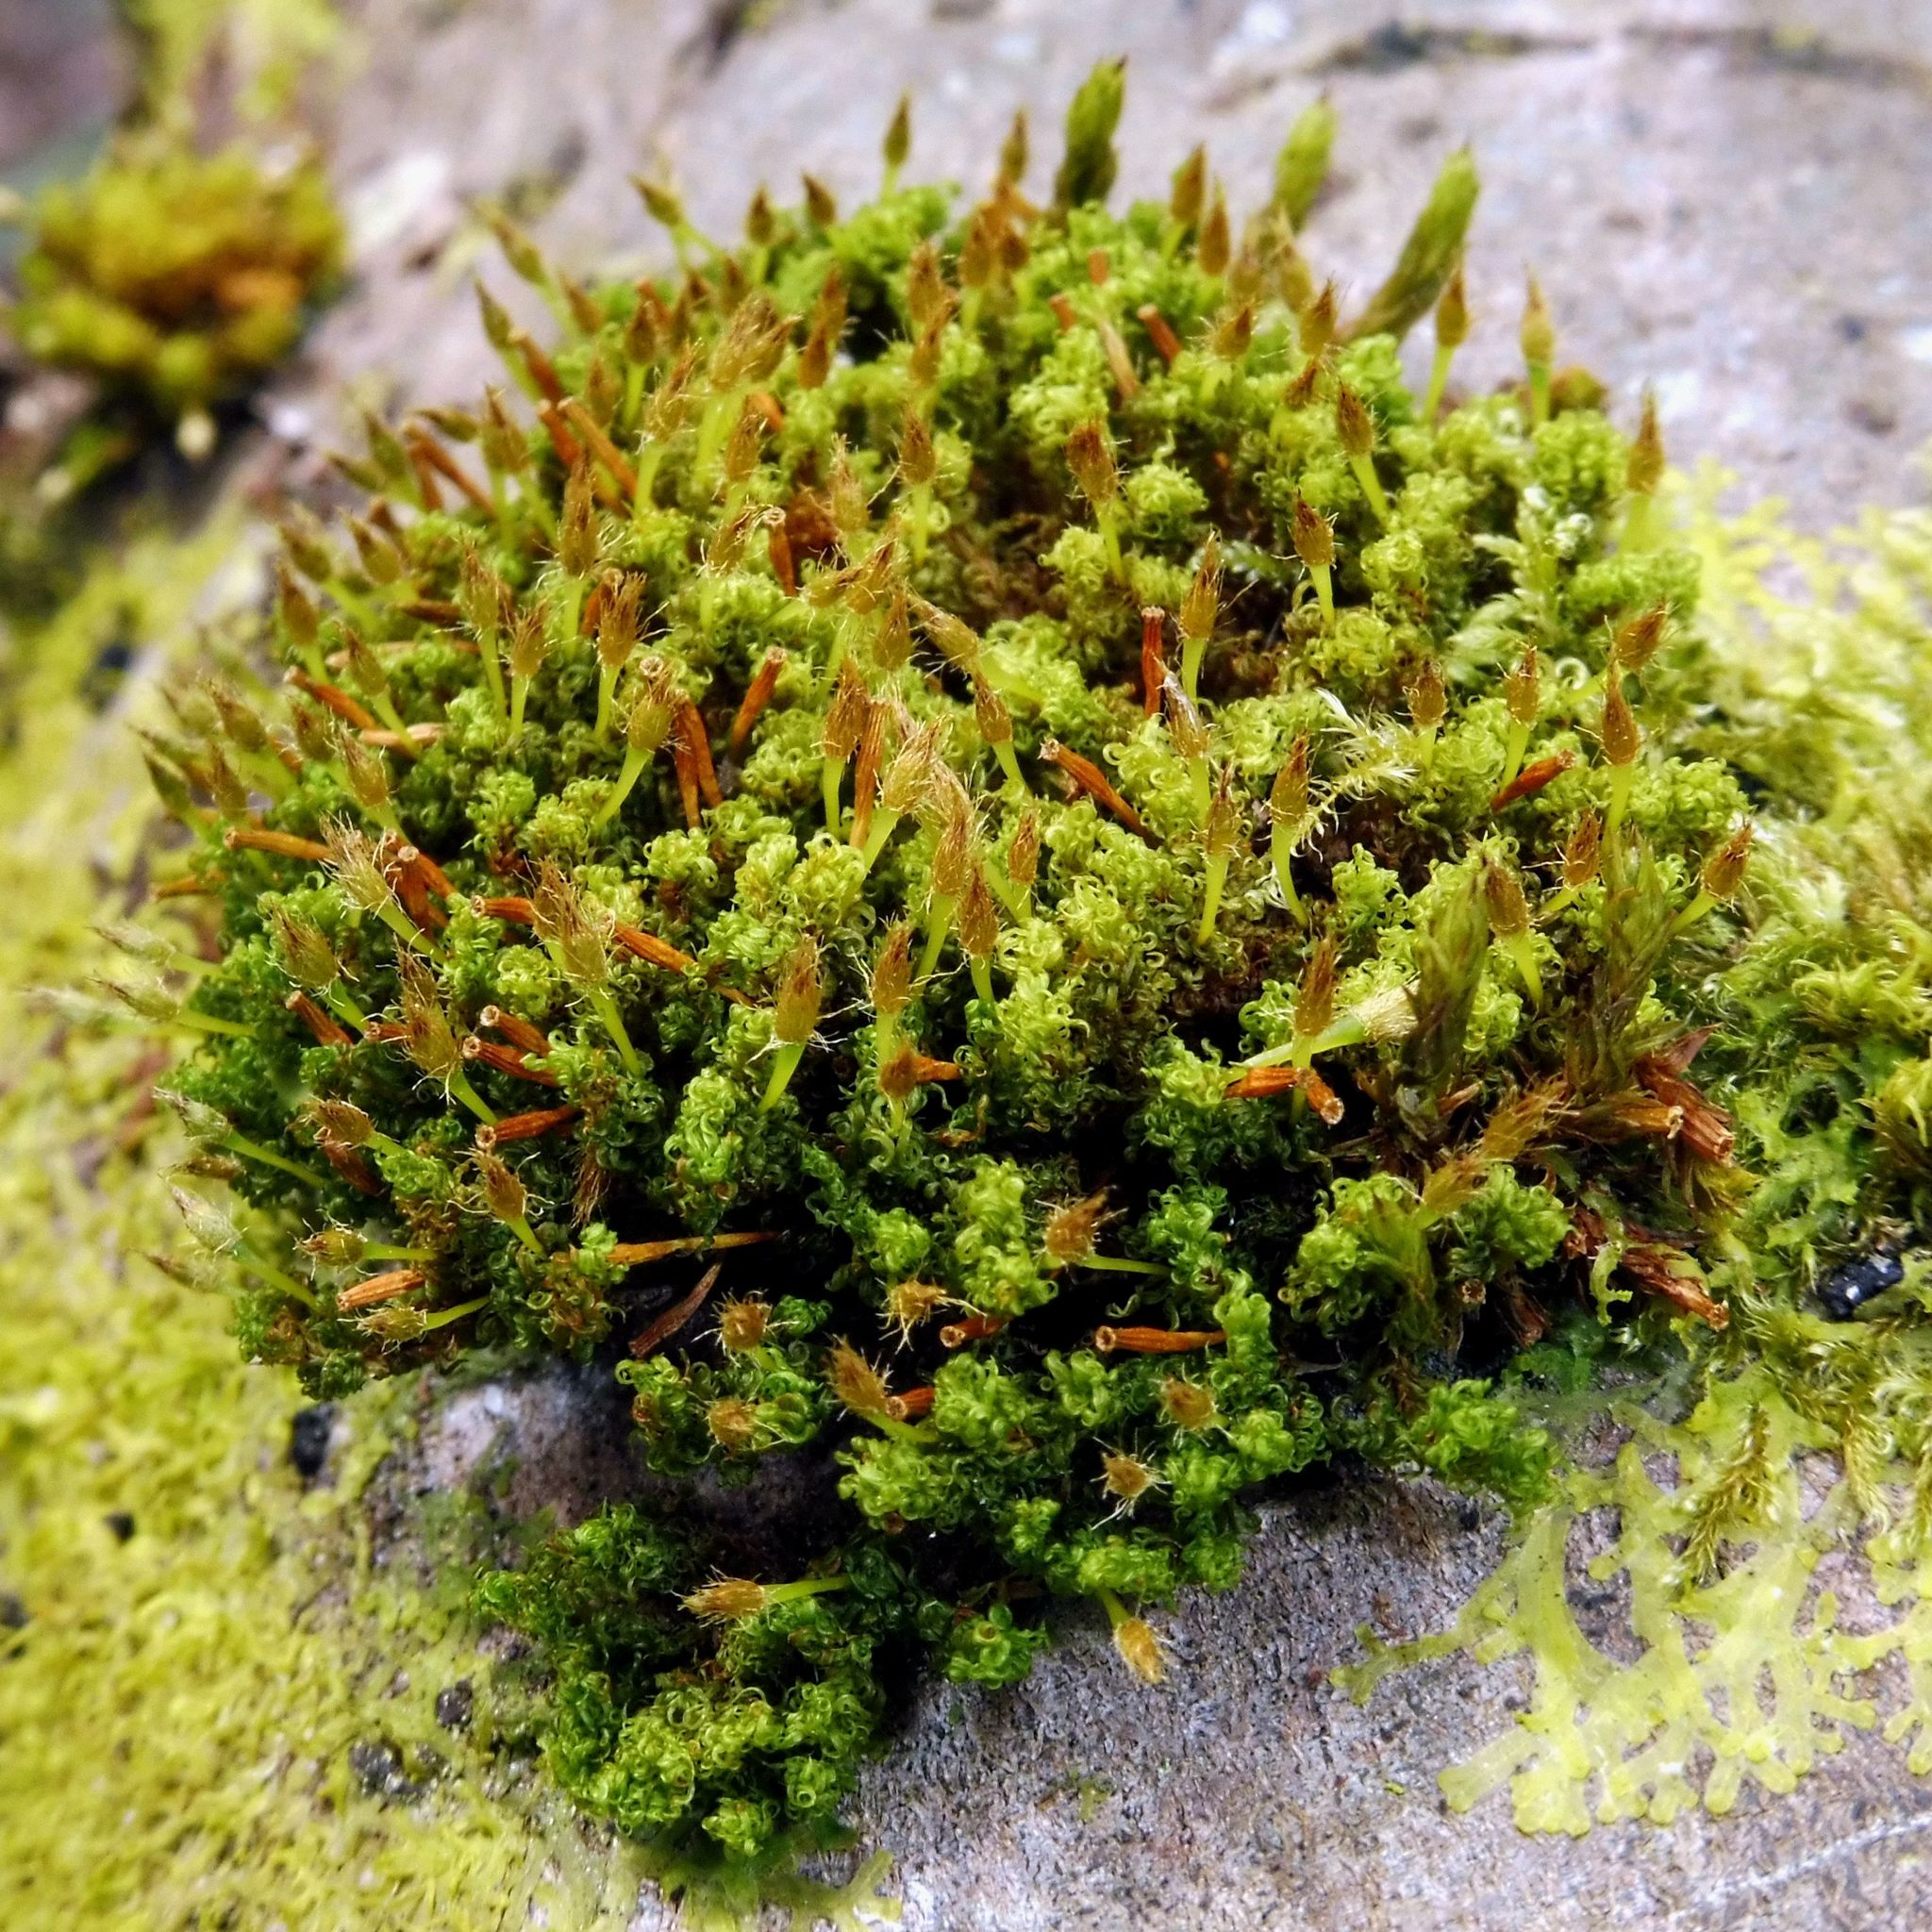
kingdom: Plantae
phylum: Bryophyta
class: Bryopsida
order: Orthotrichales
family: Orthotrichaceae
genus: Ulota
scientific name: Ulota crispa
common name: Crisped pincushion moss
